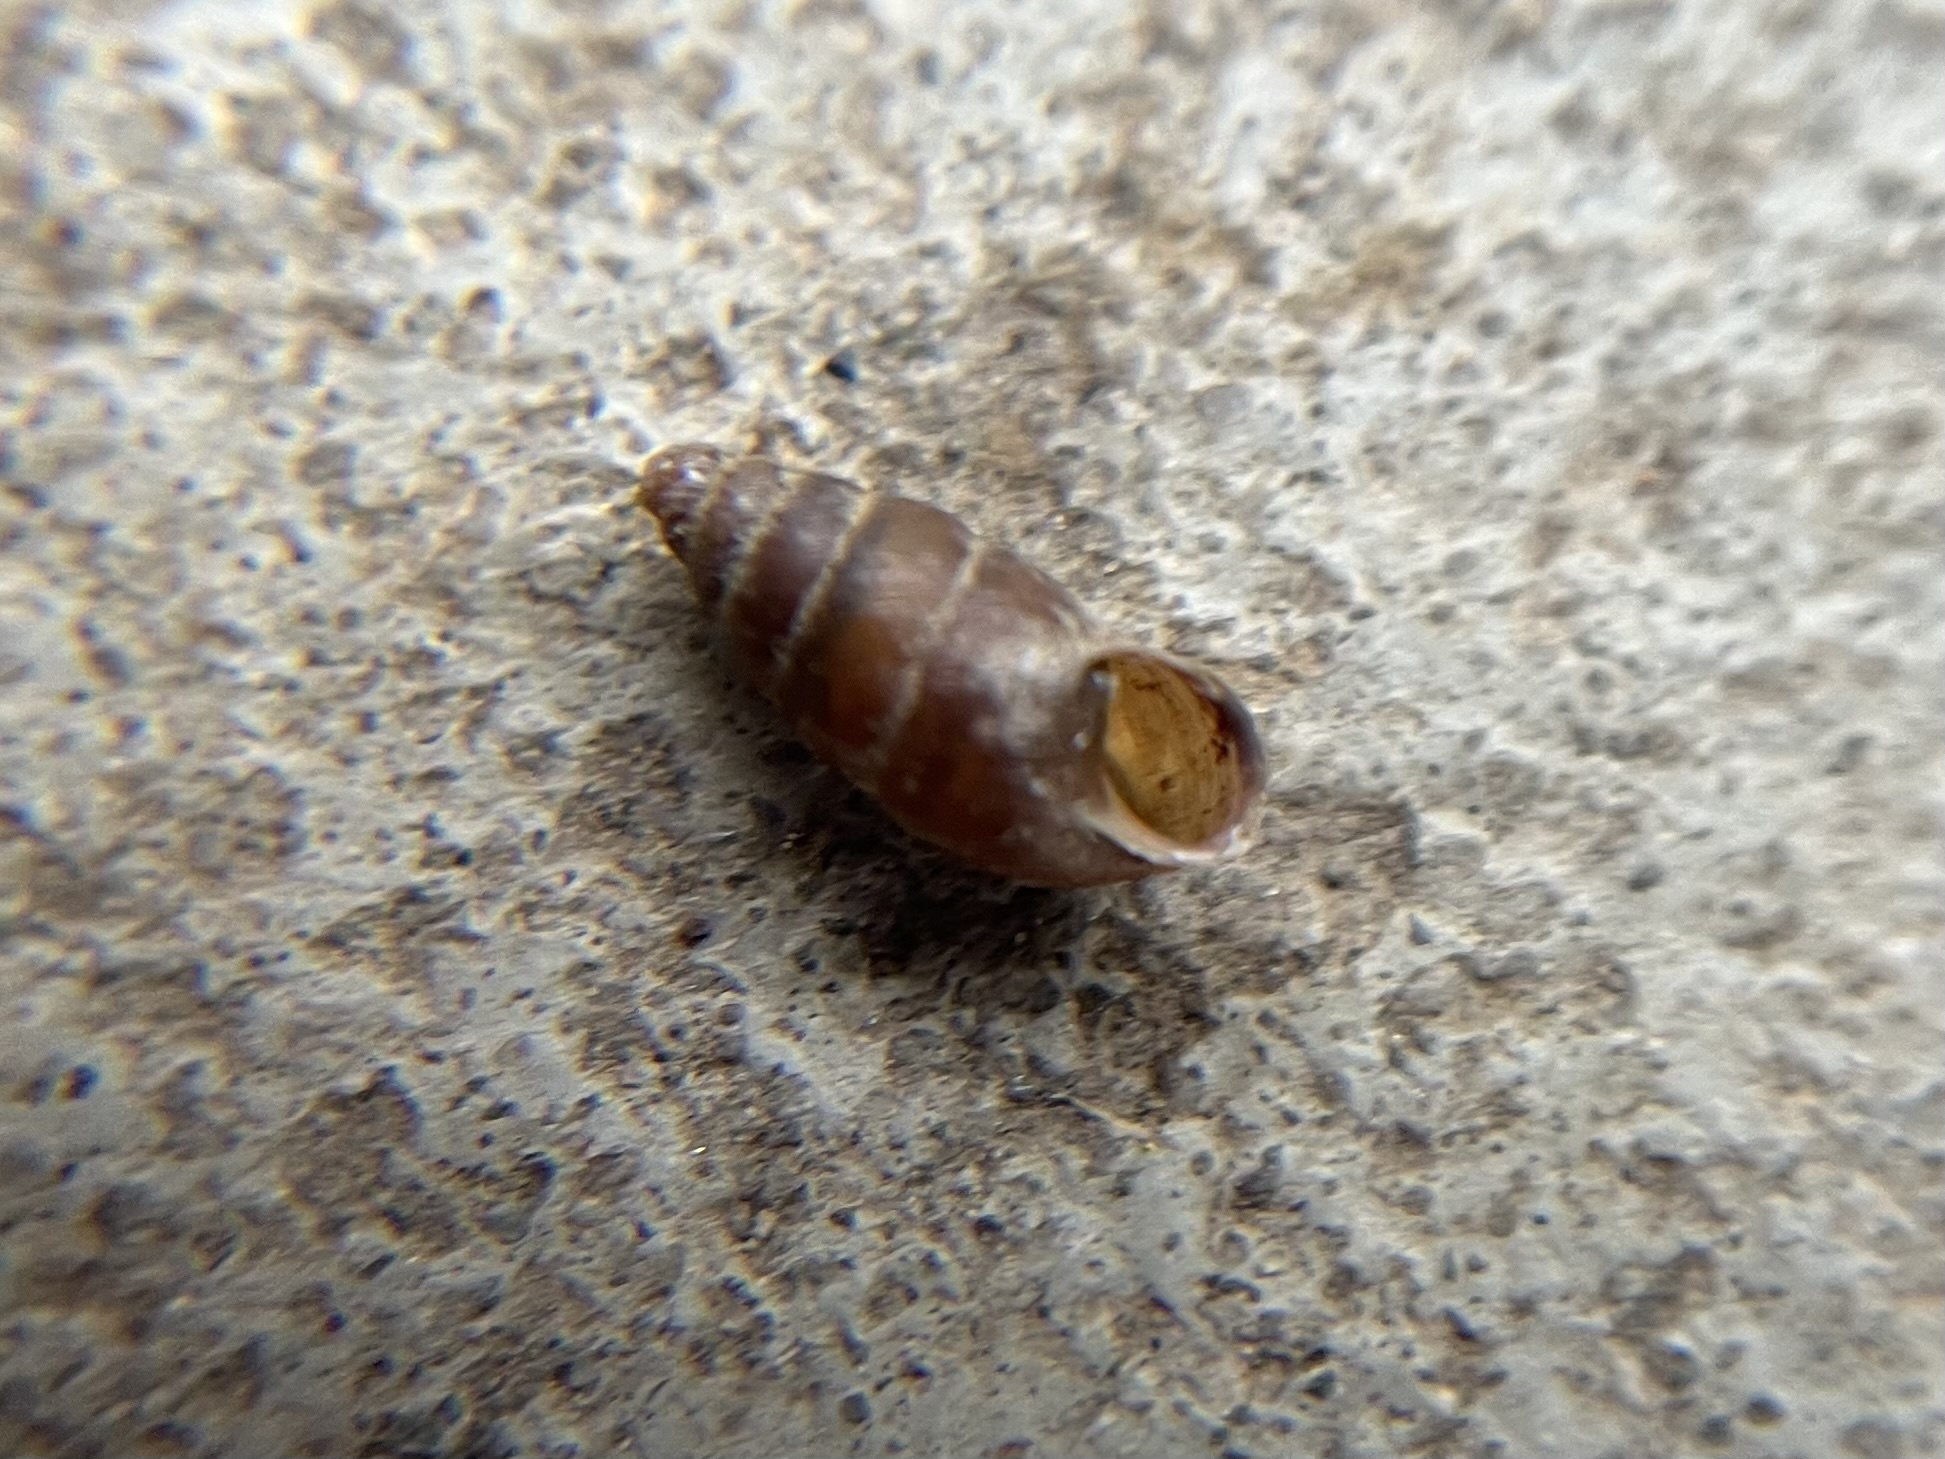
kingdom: Animalia
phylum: Mollusca
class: Gastropoda
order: Stylommatophora
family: Enidae
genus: Merdigera
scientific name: Merdigera obscura
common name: Lesser bulin
